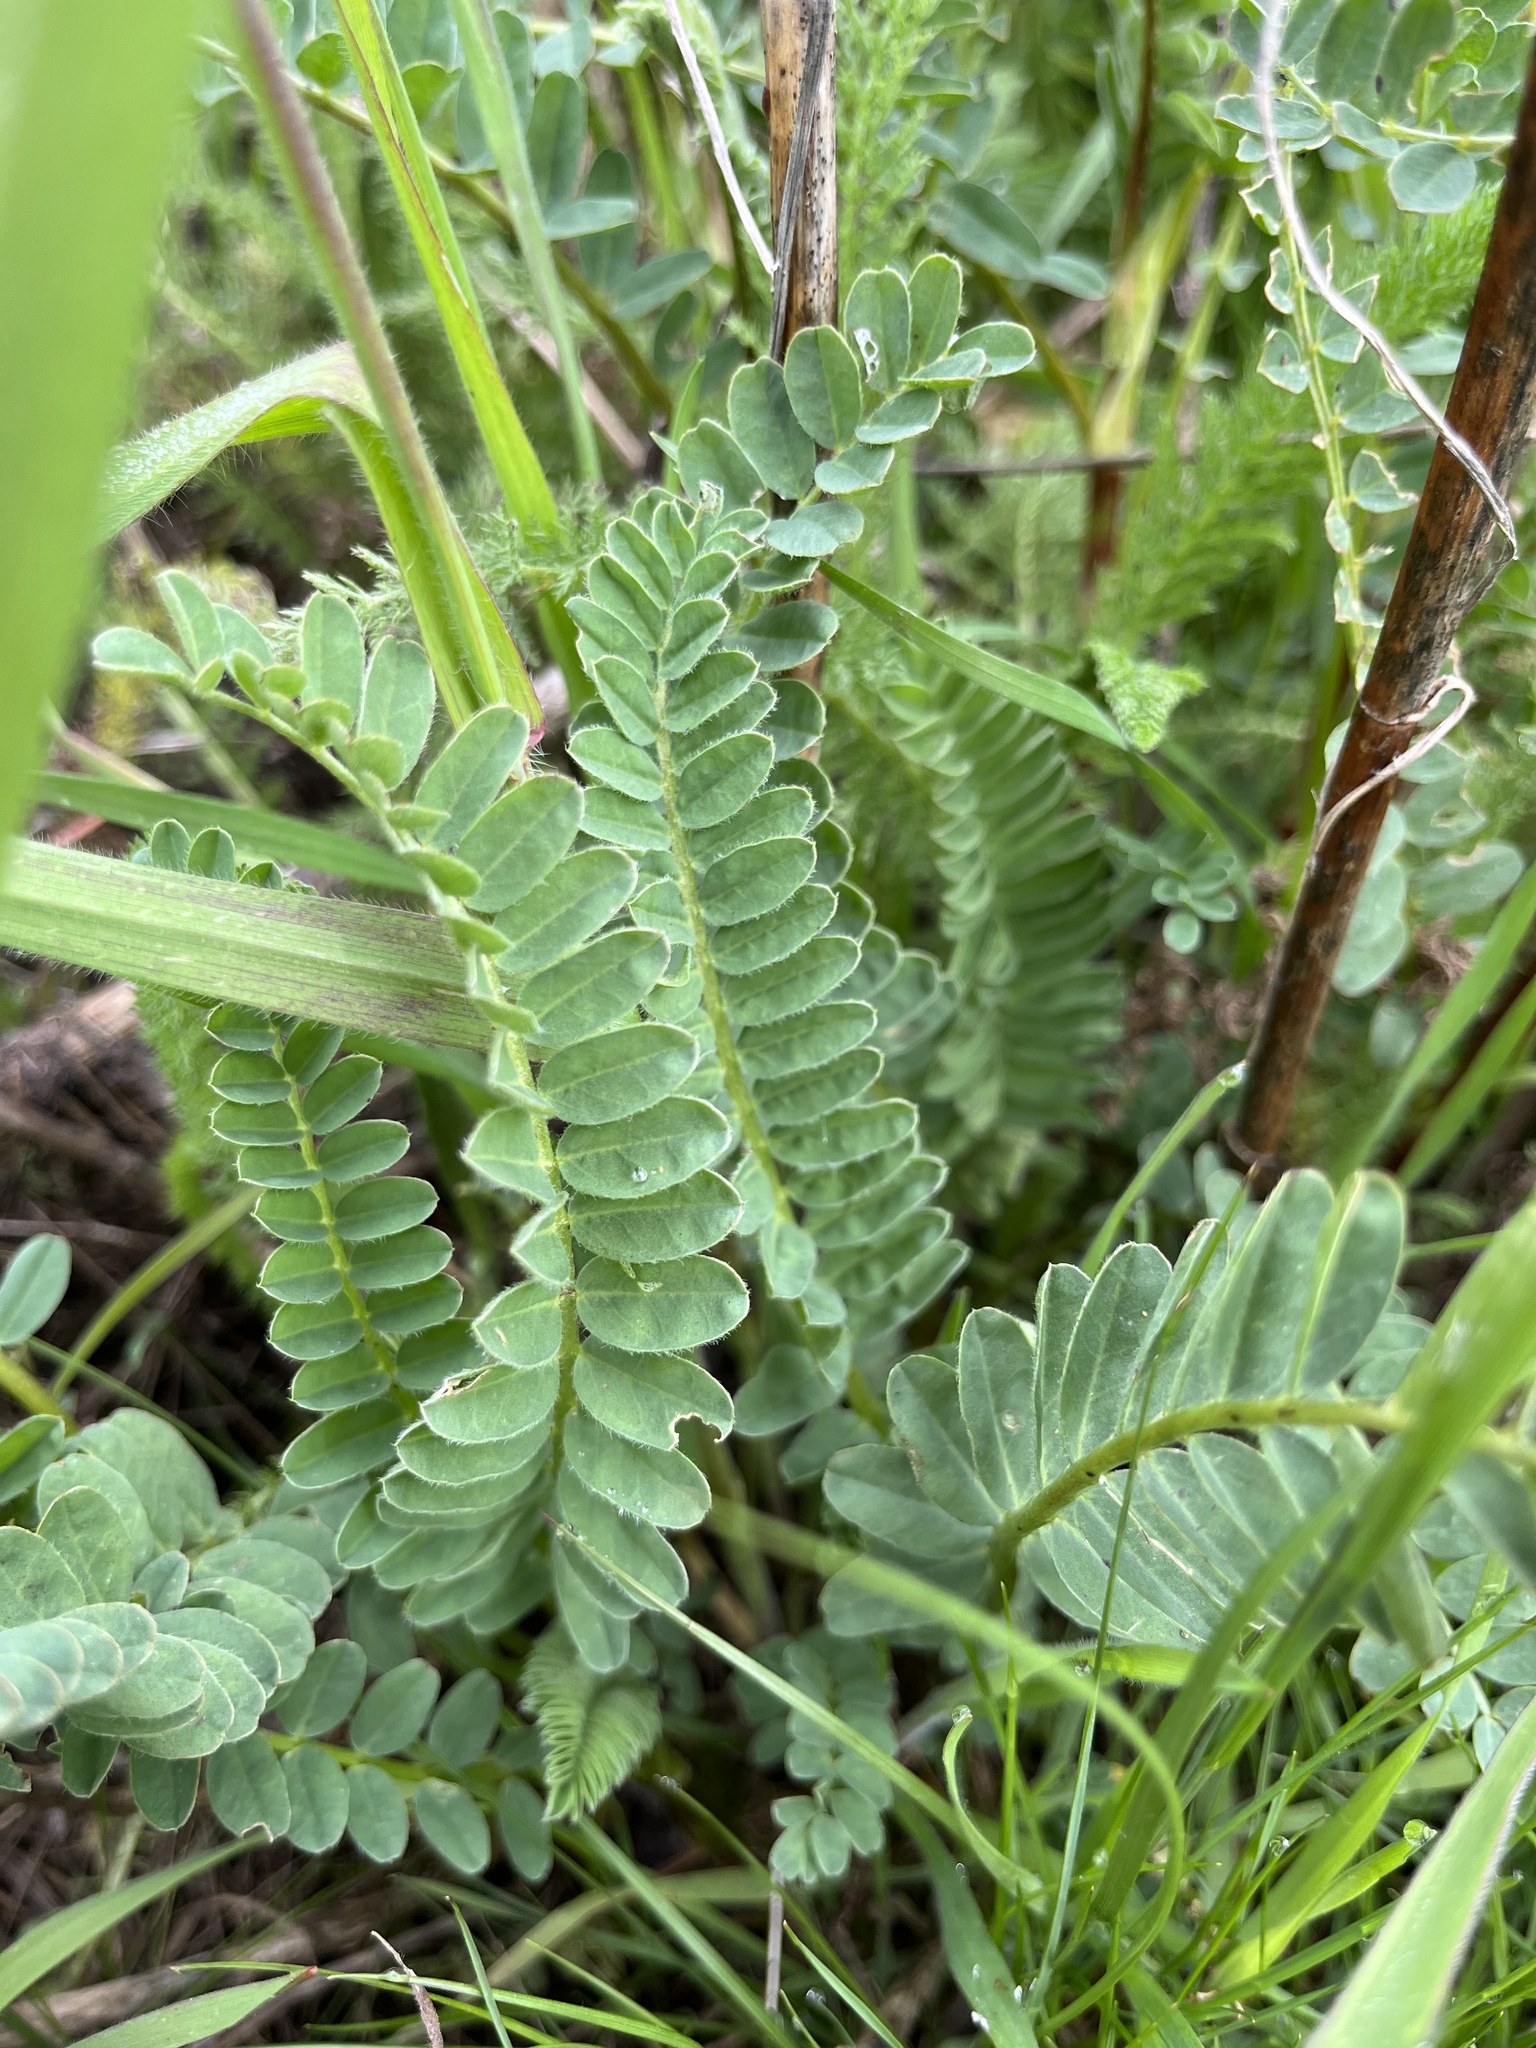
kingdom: Plantae
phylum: Tracheophyta
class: Magnoliopsida
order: Fabales
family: Fabaceae
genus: Astragalus
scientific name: Astragalus pycnostachyus
